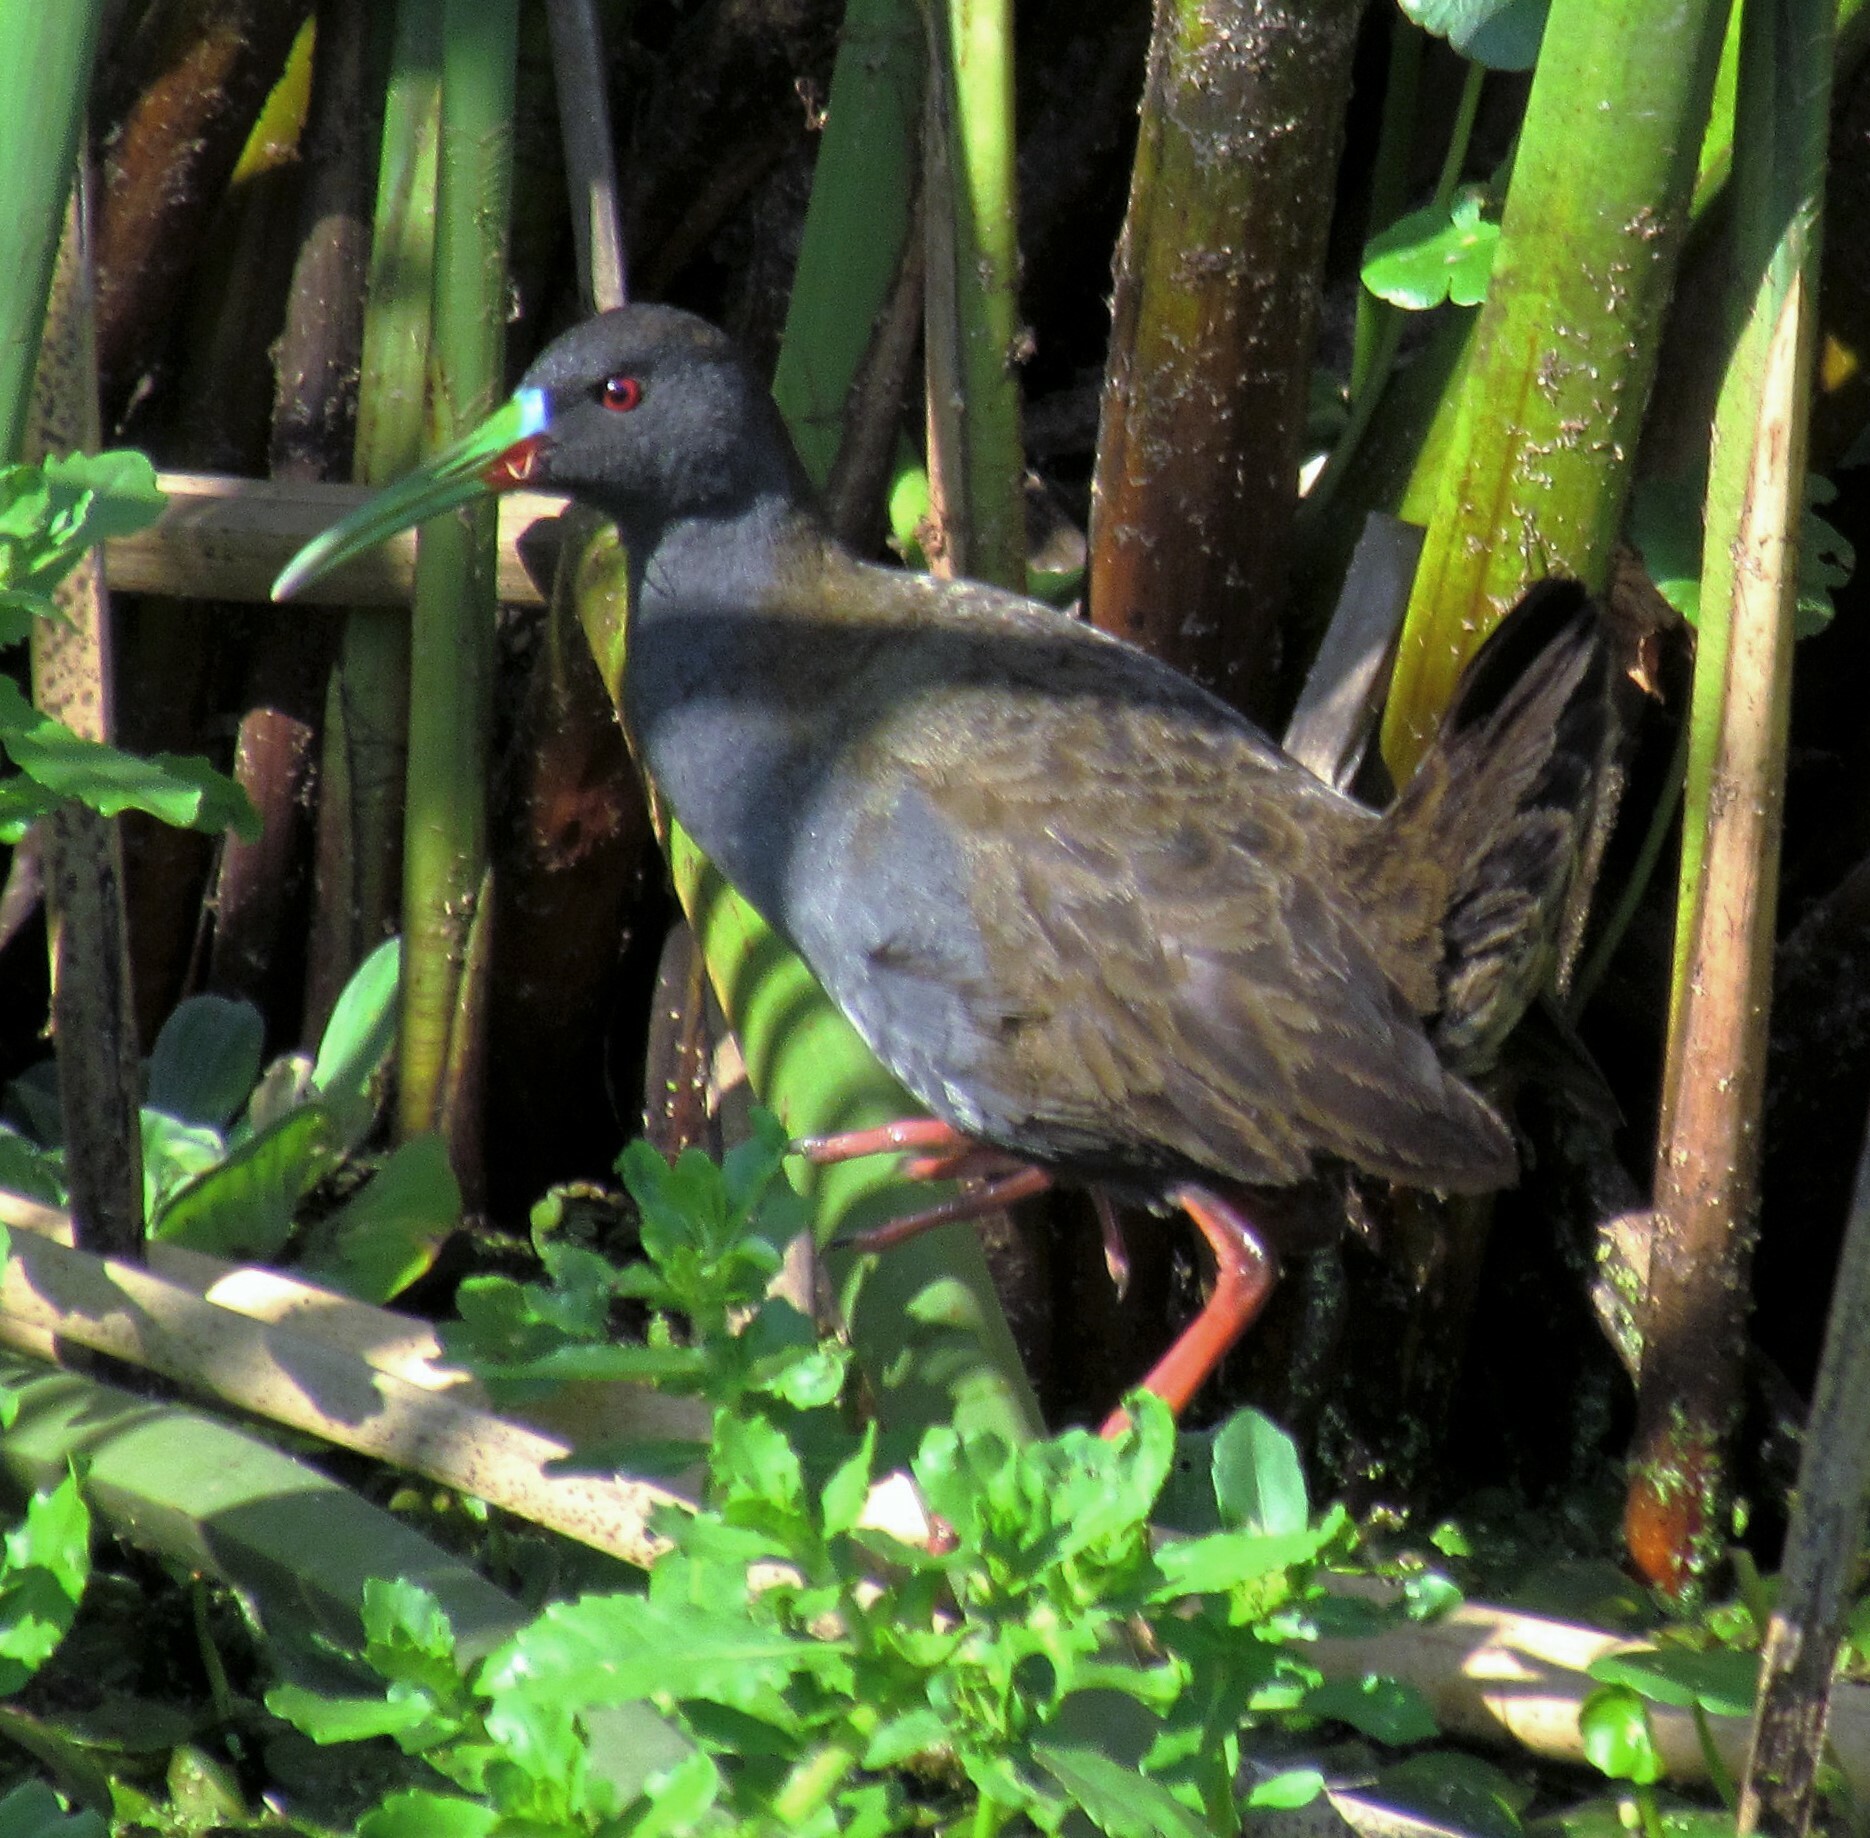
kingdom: Animalia
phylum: Chordata
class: Aves
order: Gruiformes
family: Rallidae
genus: Pardirallus
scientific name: Pardirallus sanguinolentus
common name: Plumbeous rail
